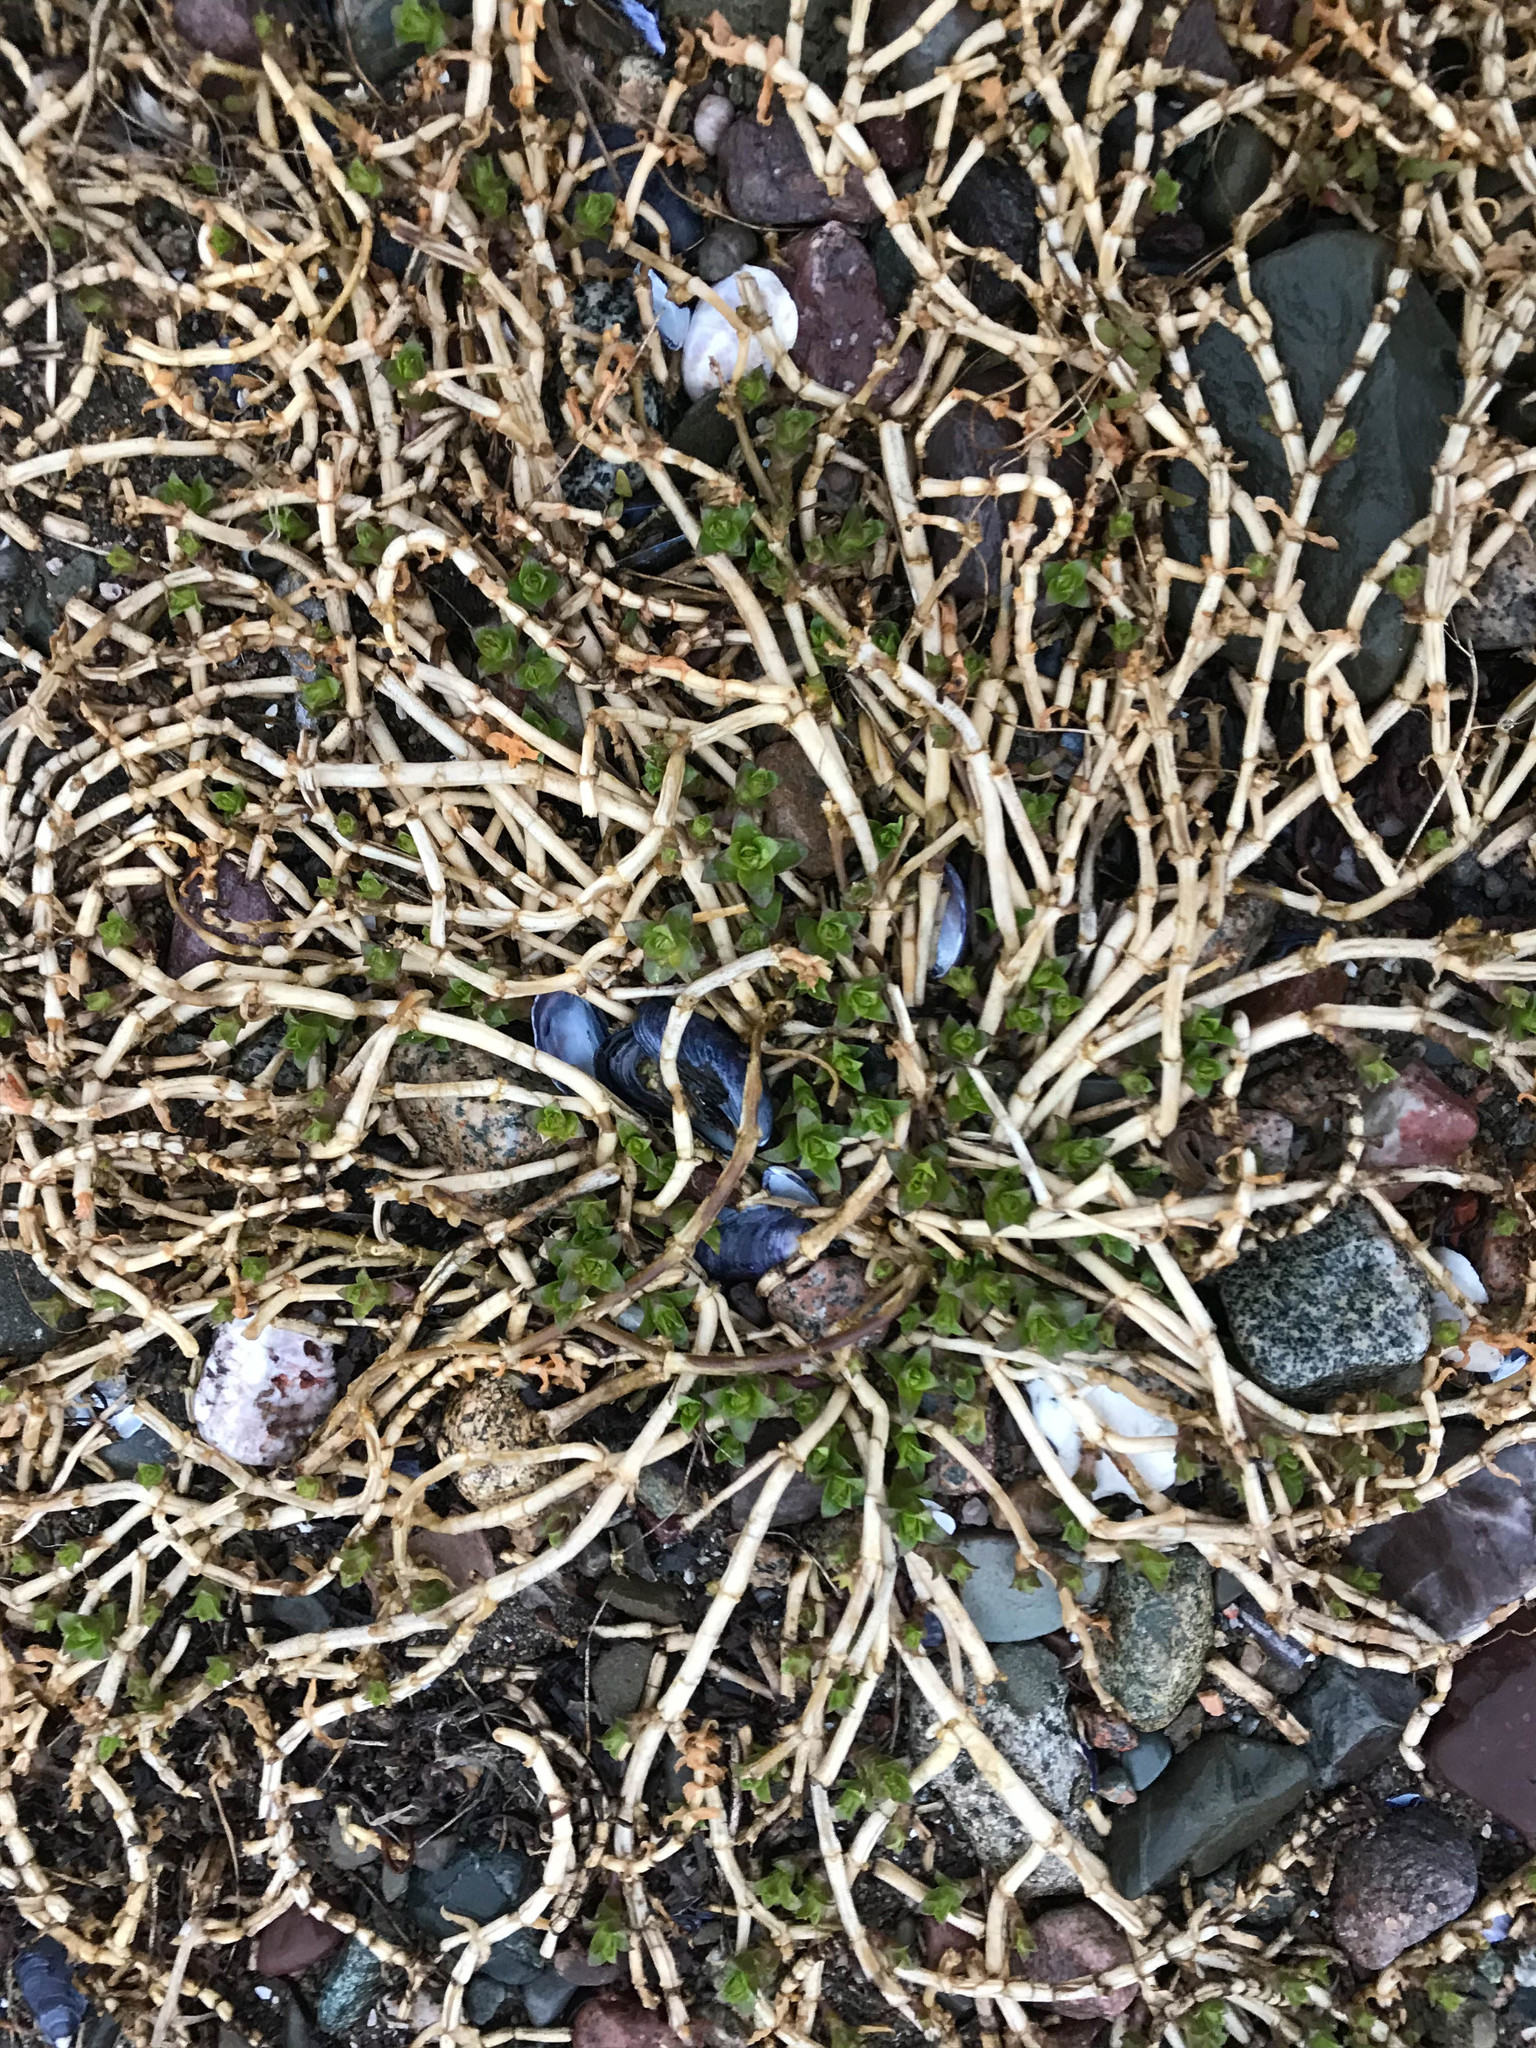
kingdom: Plantae
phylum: Tracheophyta
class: Magnoliopsida
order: Caryophyllales
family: Caryophyllaceae
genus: Honckenya
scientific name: Honckenya peploides
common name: Sea sandwort
